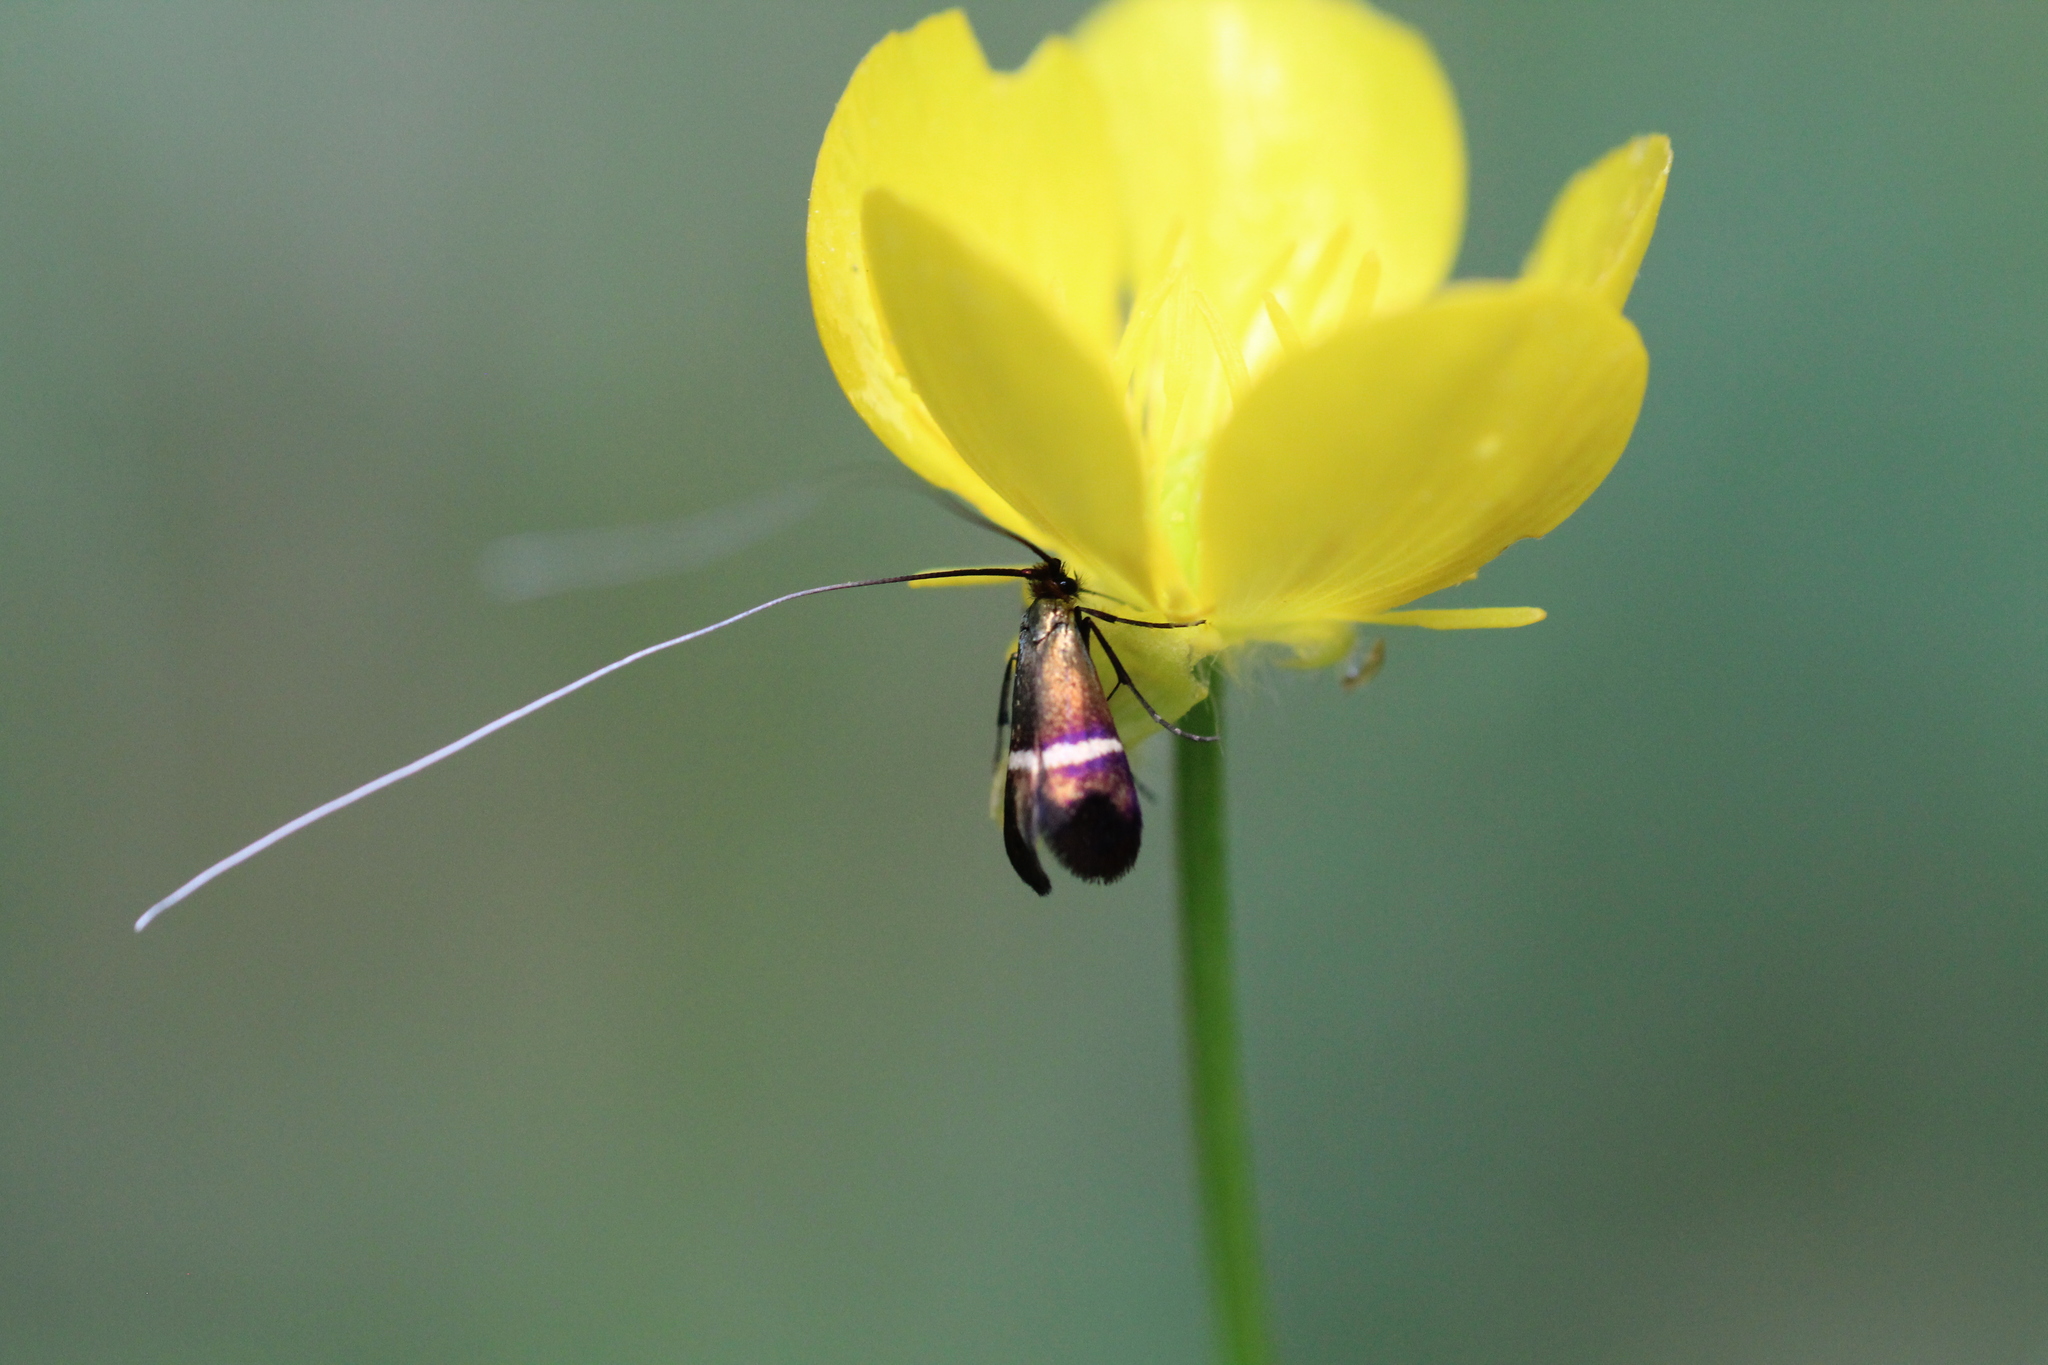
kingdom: Animalia
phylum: Arthropoda
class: Insecta
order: Lepidoptera
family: Adelidae
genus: Adela
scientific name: Adela australis
